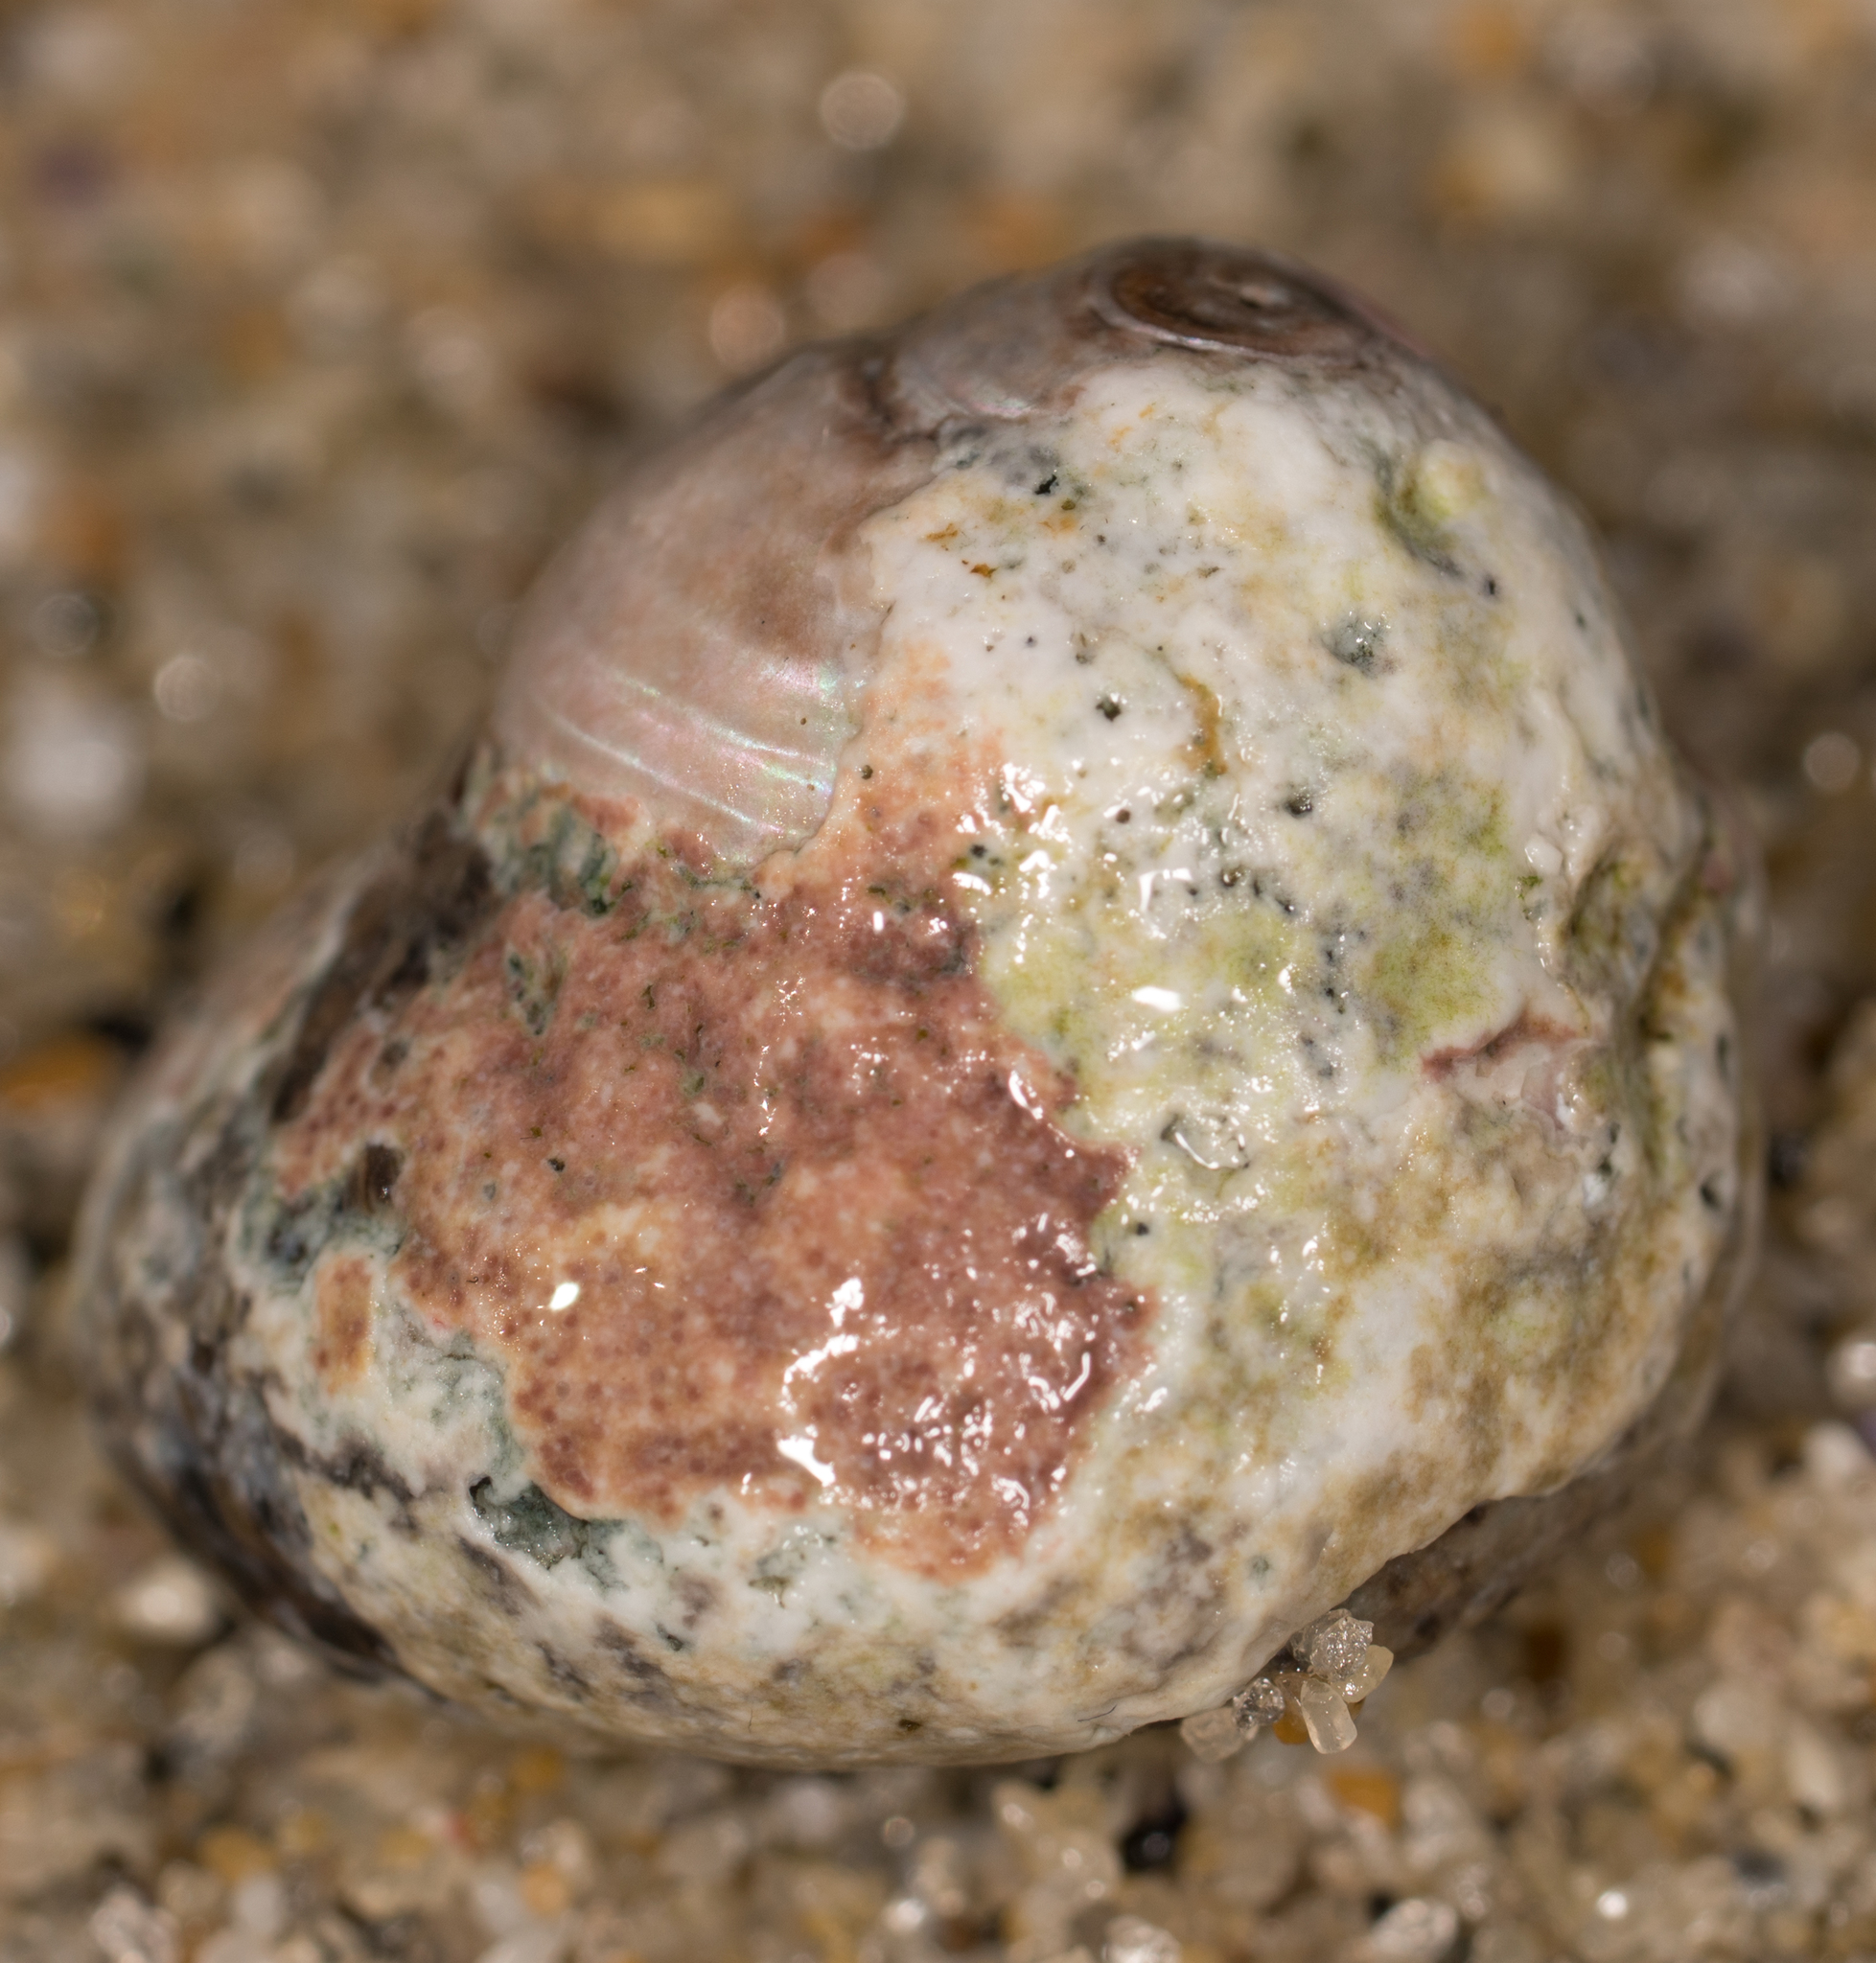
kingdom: Animalia
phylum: Mollusca
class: Gastropoda
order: Trochida
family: Tegulidae
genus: Tegula
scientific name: Tegula eiseni
